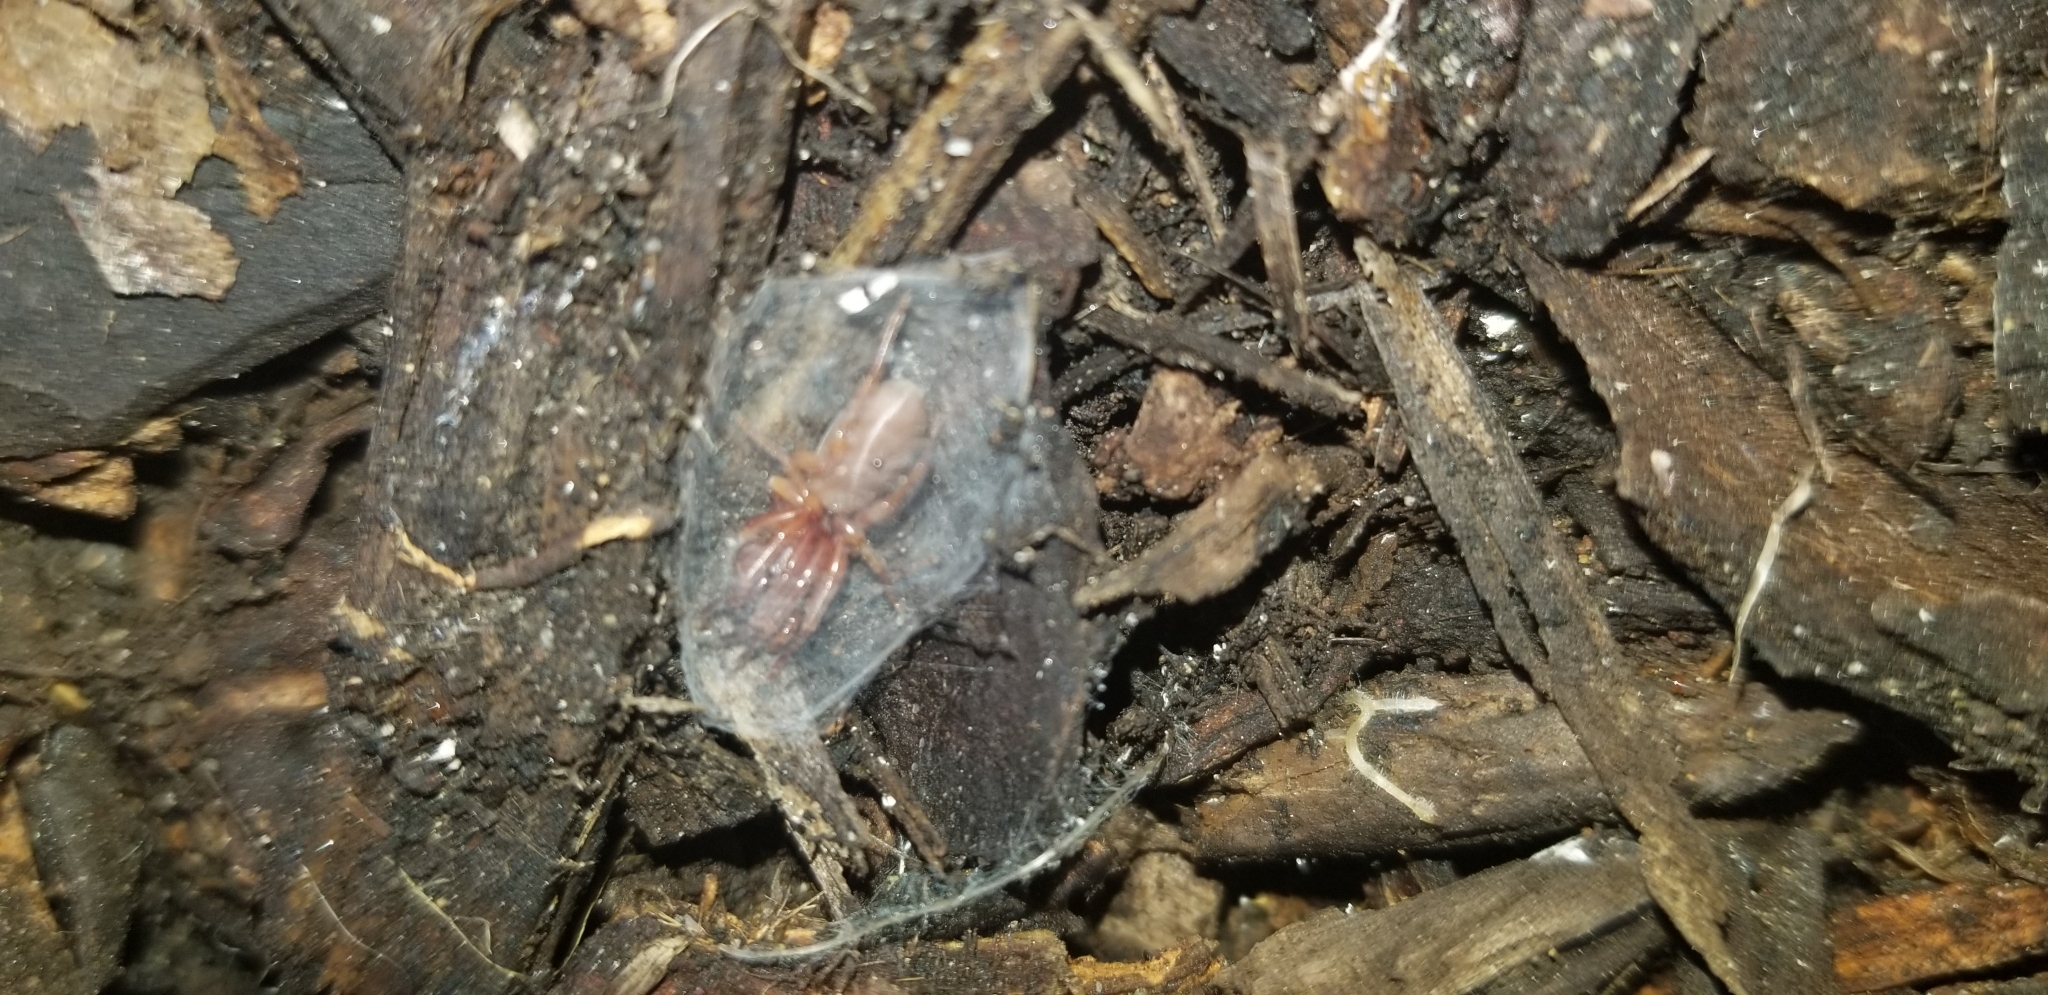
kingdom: Animalia
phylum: Arthropoda
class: Arachnida
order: Araneae
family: Dysderidae
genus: Dysdera
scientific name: Dysdera crocata
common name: Woodlouse spider
